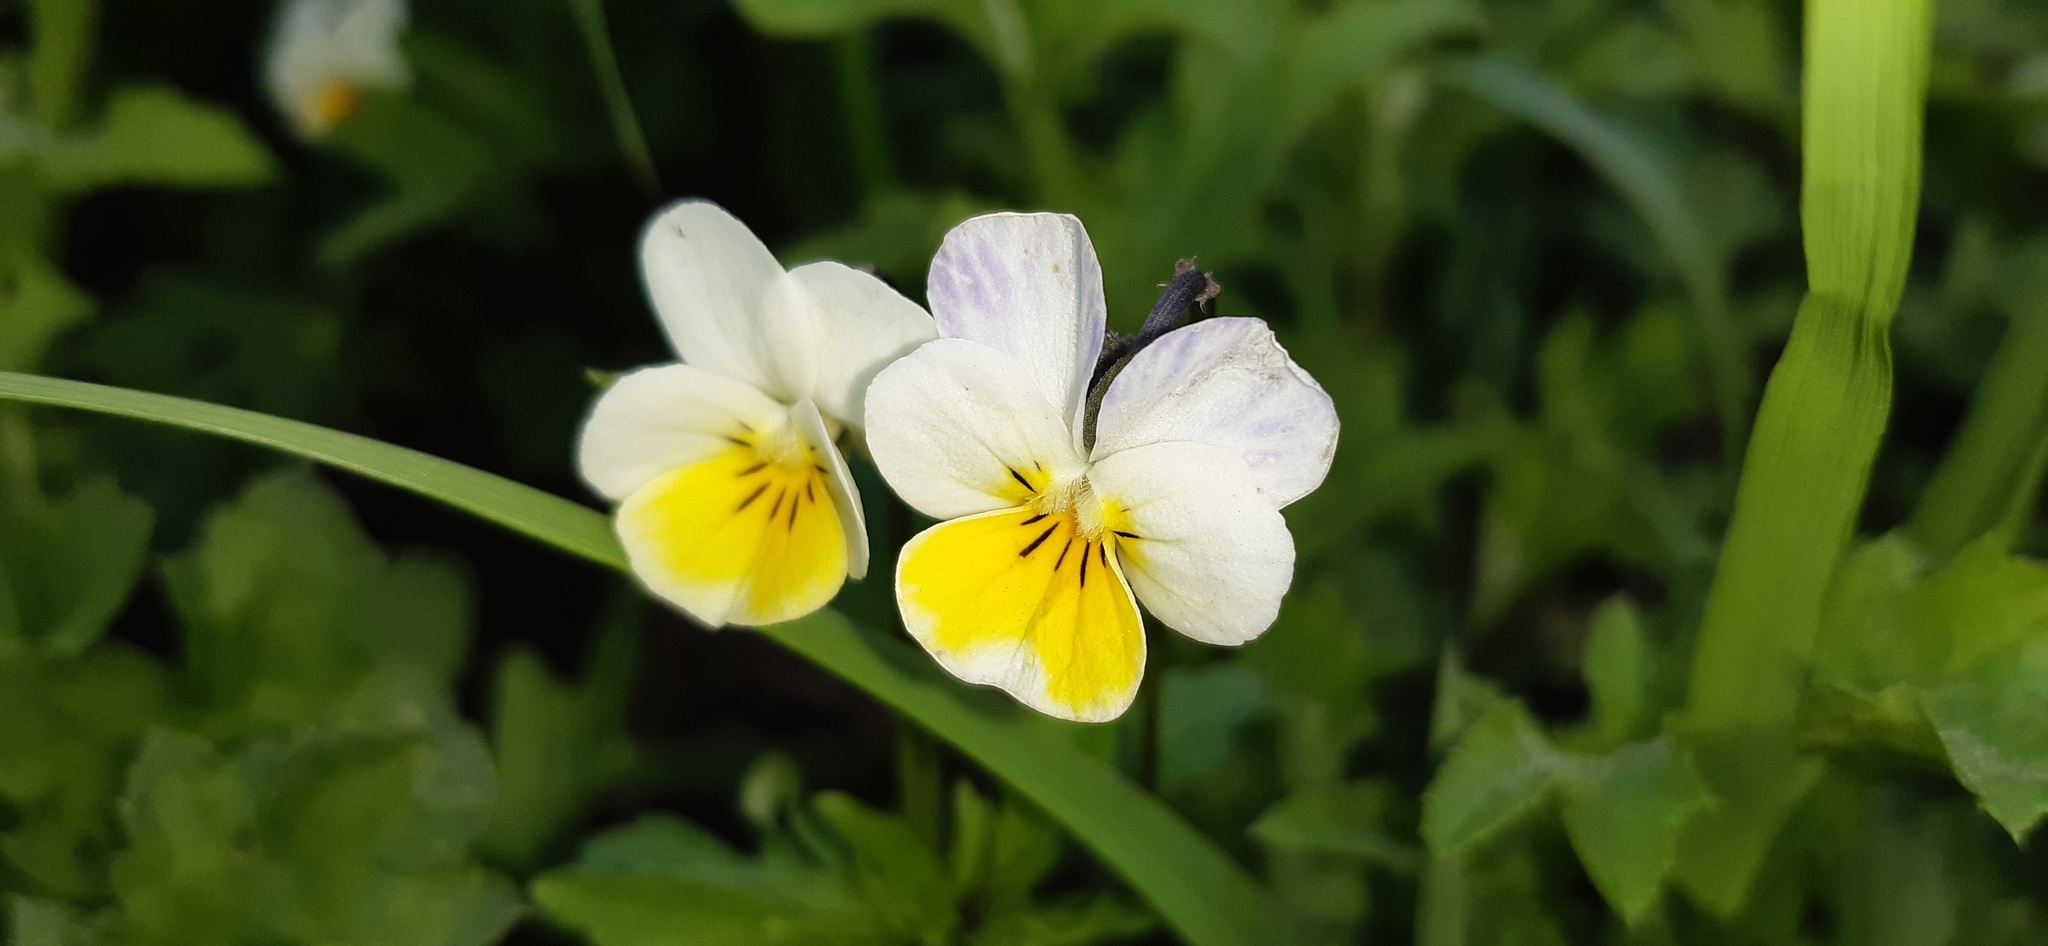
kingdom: Plantae
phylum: Tracheophyta
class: Magnoliopsida
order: Malpighiales
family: Violaceae
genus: Viola
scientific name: Viola tricolor
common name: Pansy
